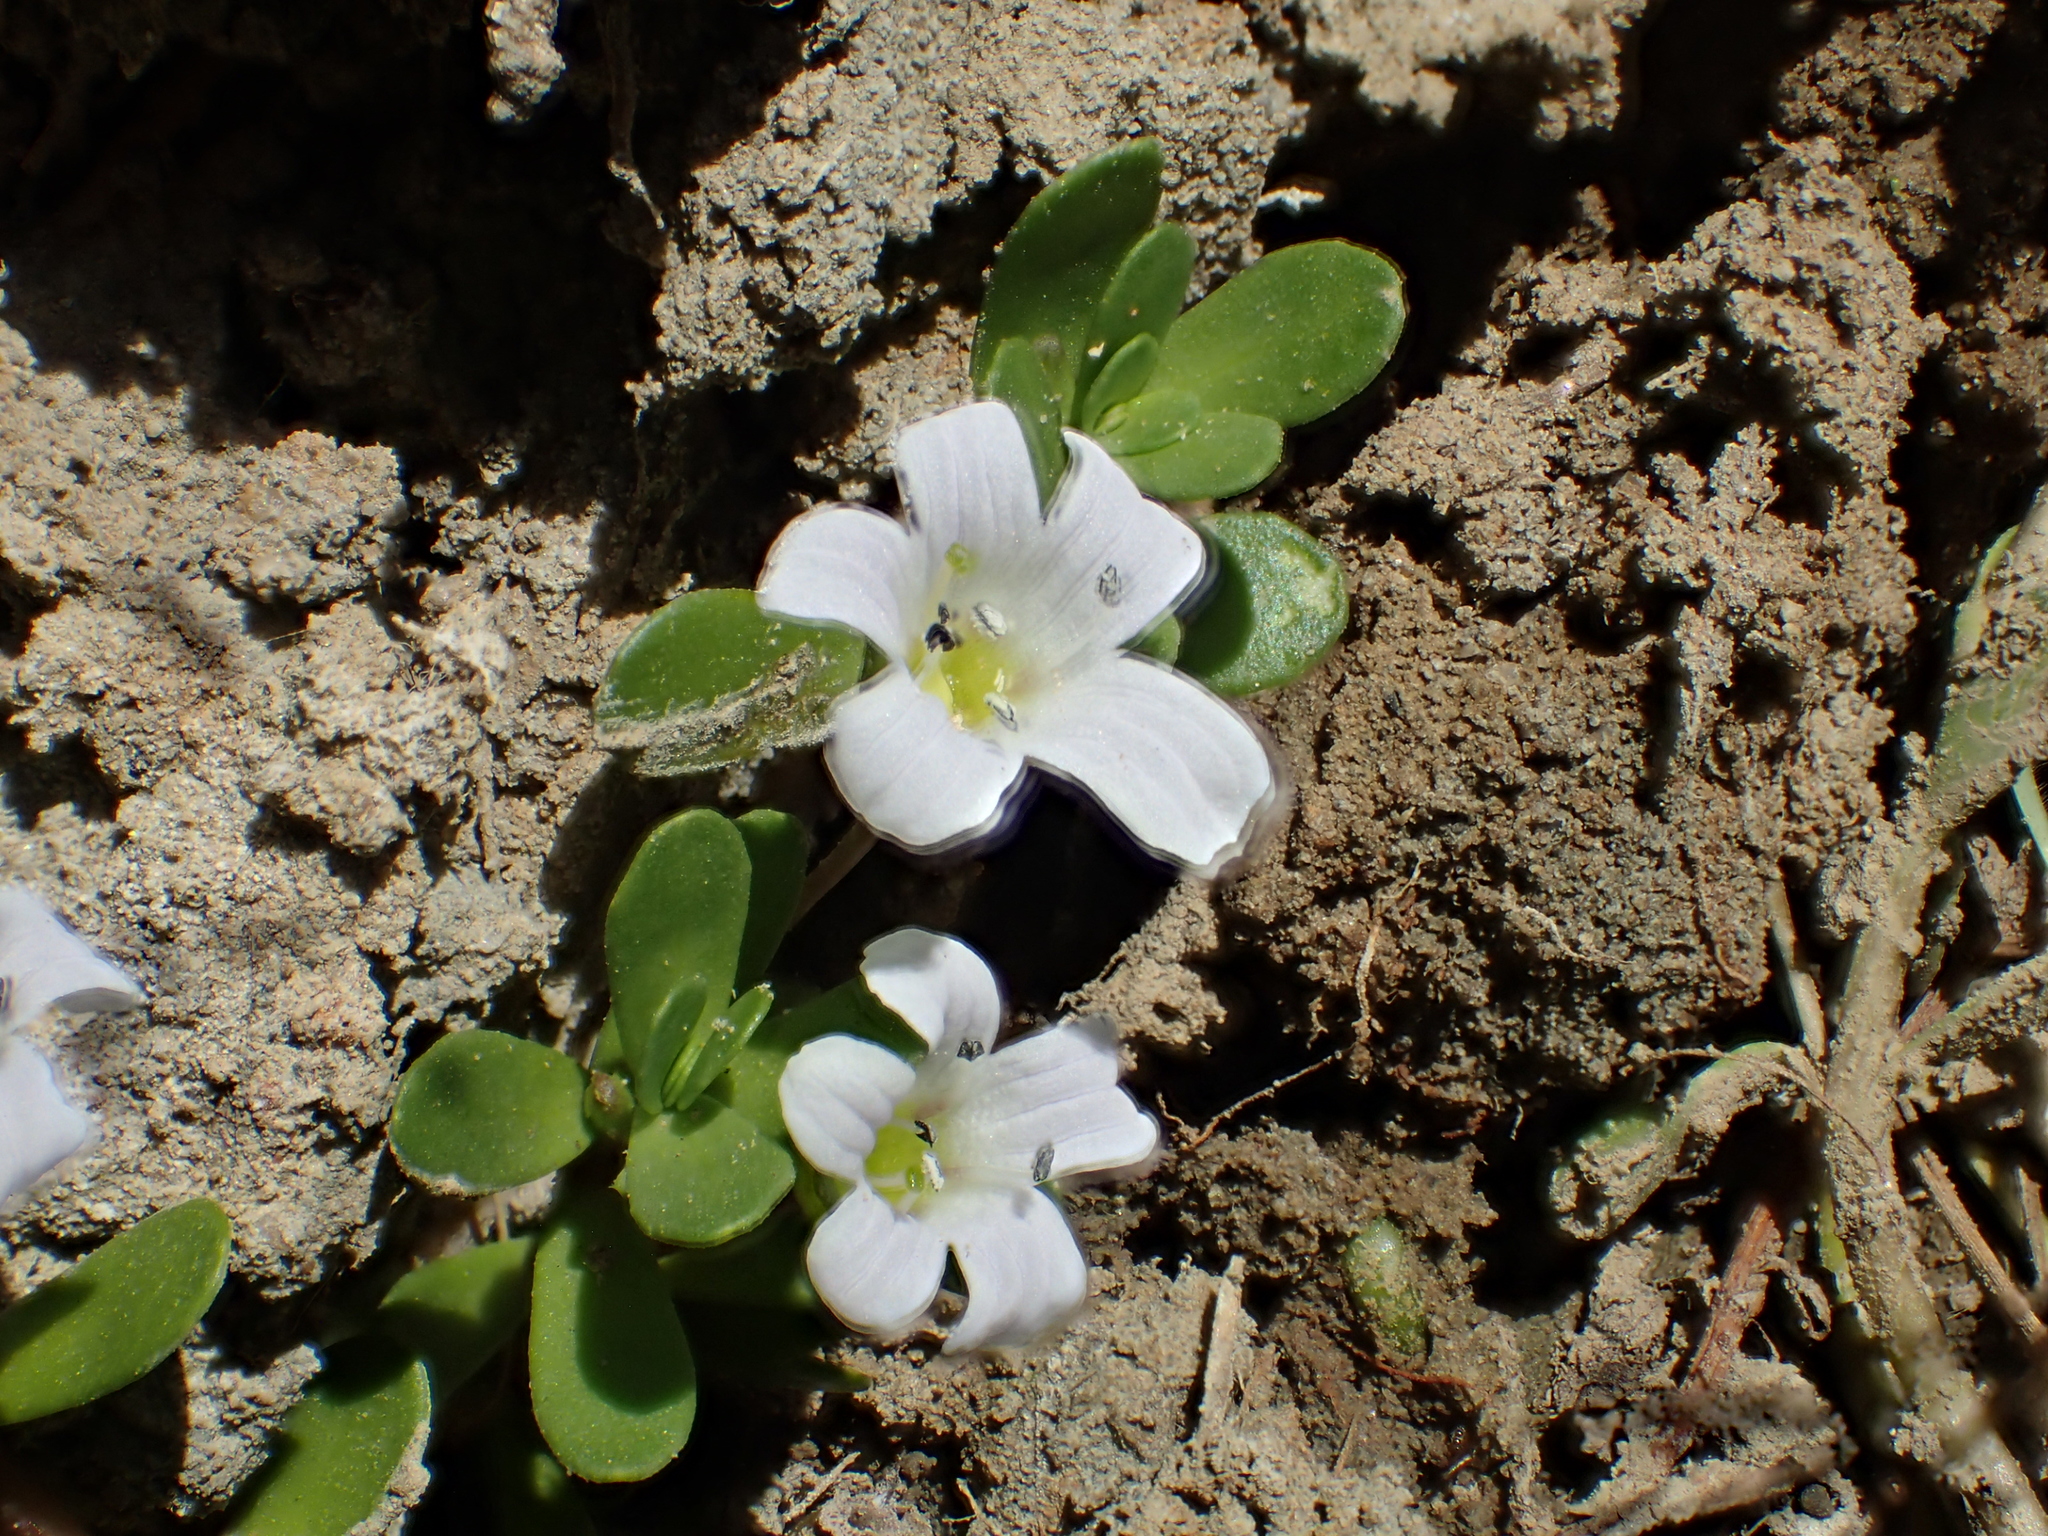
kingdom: Plantae
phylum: Tracheophyta
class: Magnoliopsida
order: Lamiales
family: Plantaginaceae
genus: Bacopa
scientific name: Bacopa monnieri
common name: Indian-pennywort
